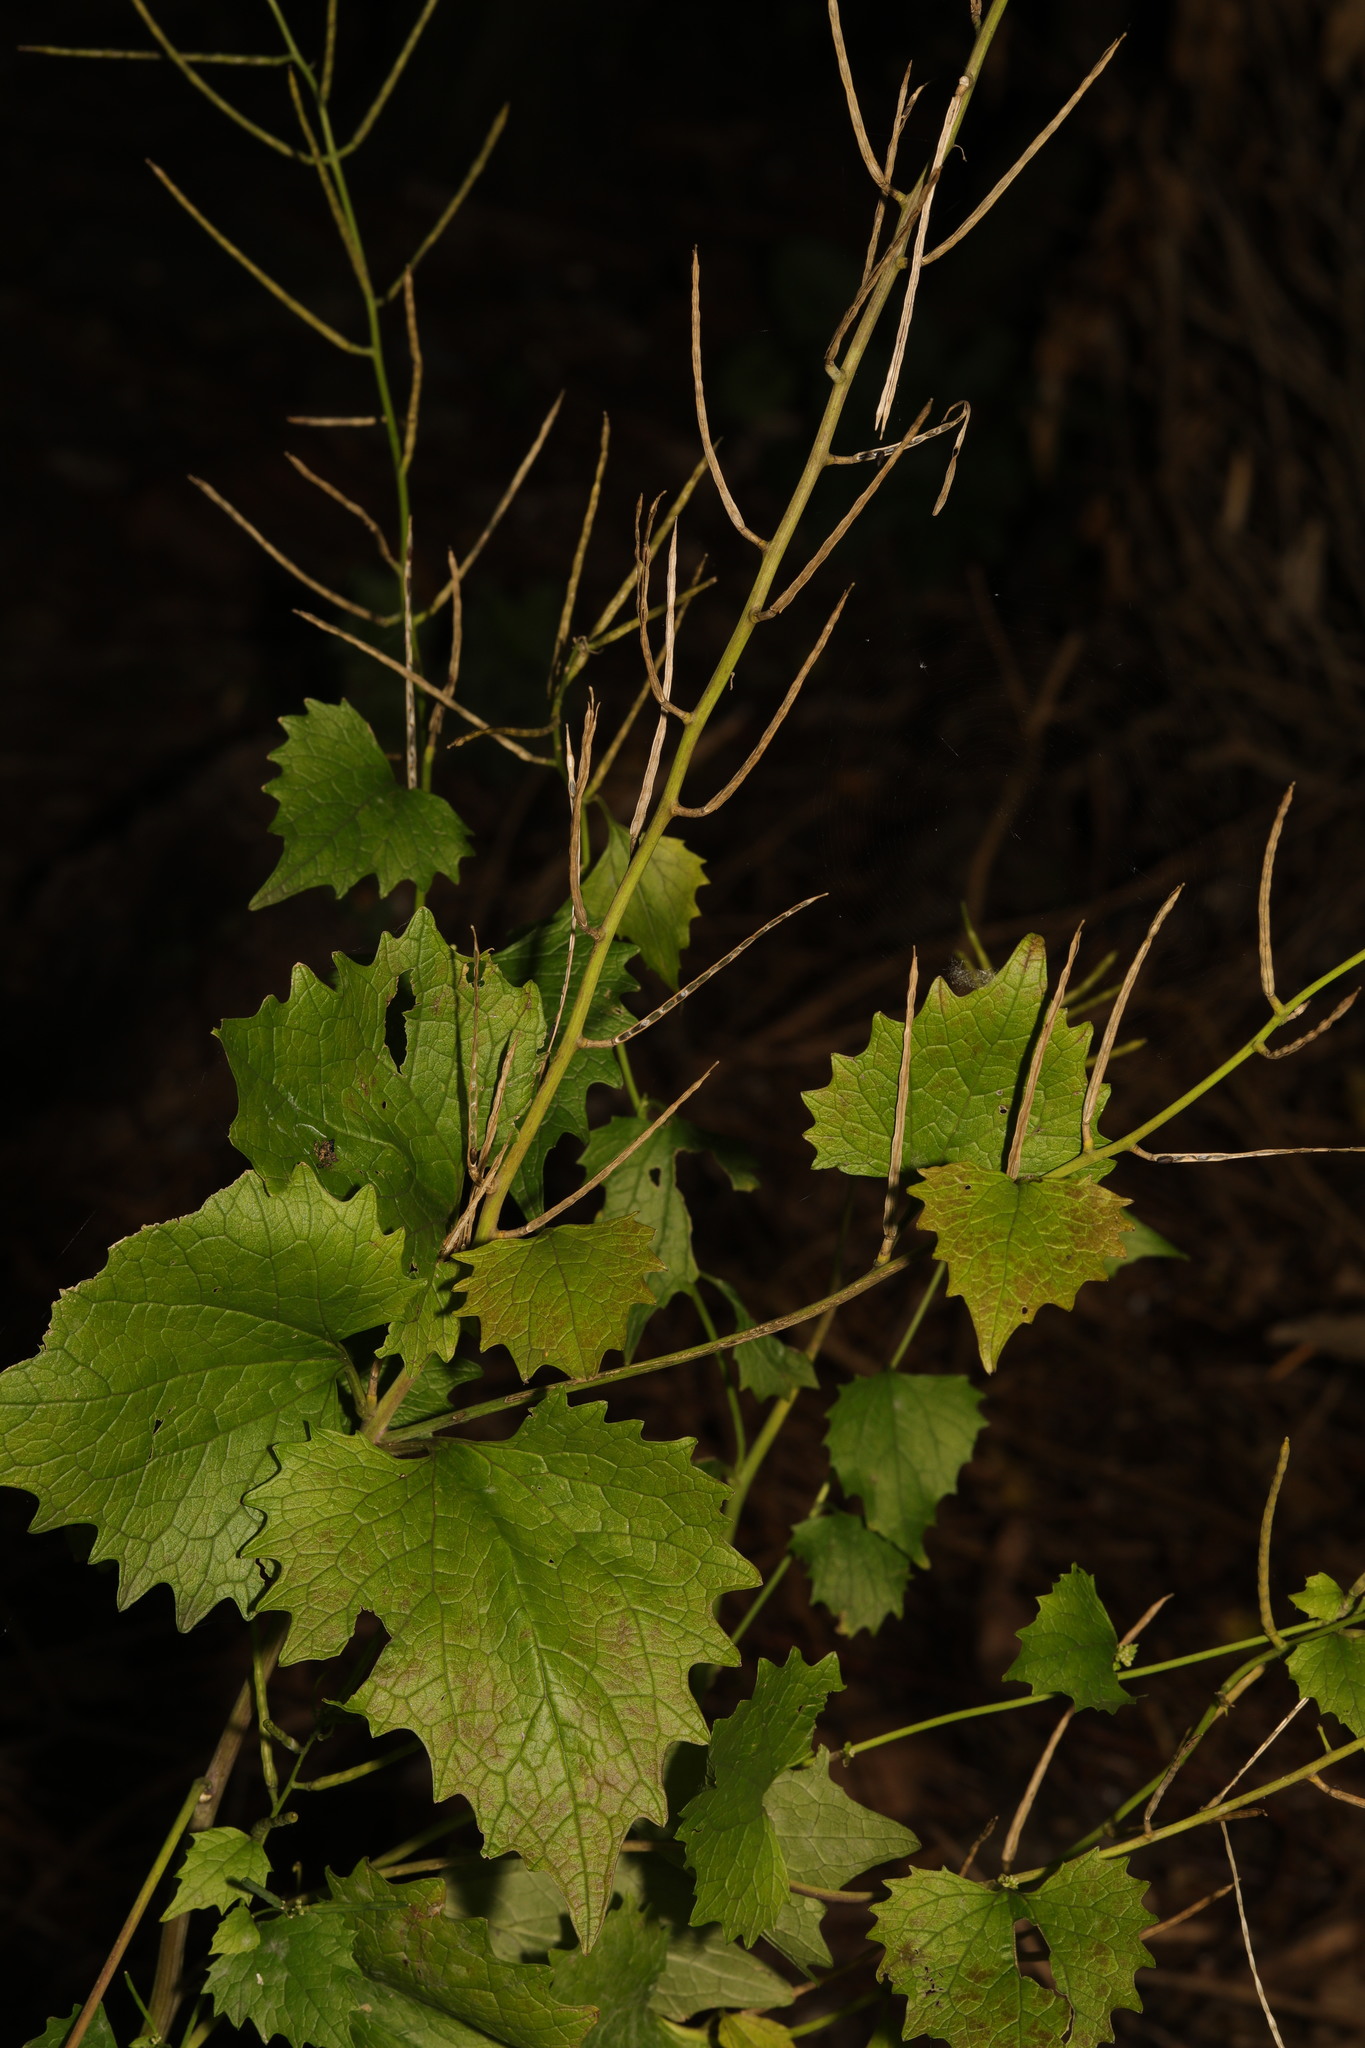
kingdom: Plantae
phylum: Tracheophyta
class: Magnoliopsida
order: Brassicales
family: Brassicaceae
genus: Alliaria
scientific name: Alliaria petiolata
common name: Garlic mustard
